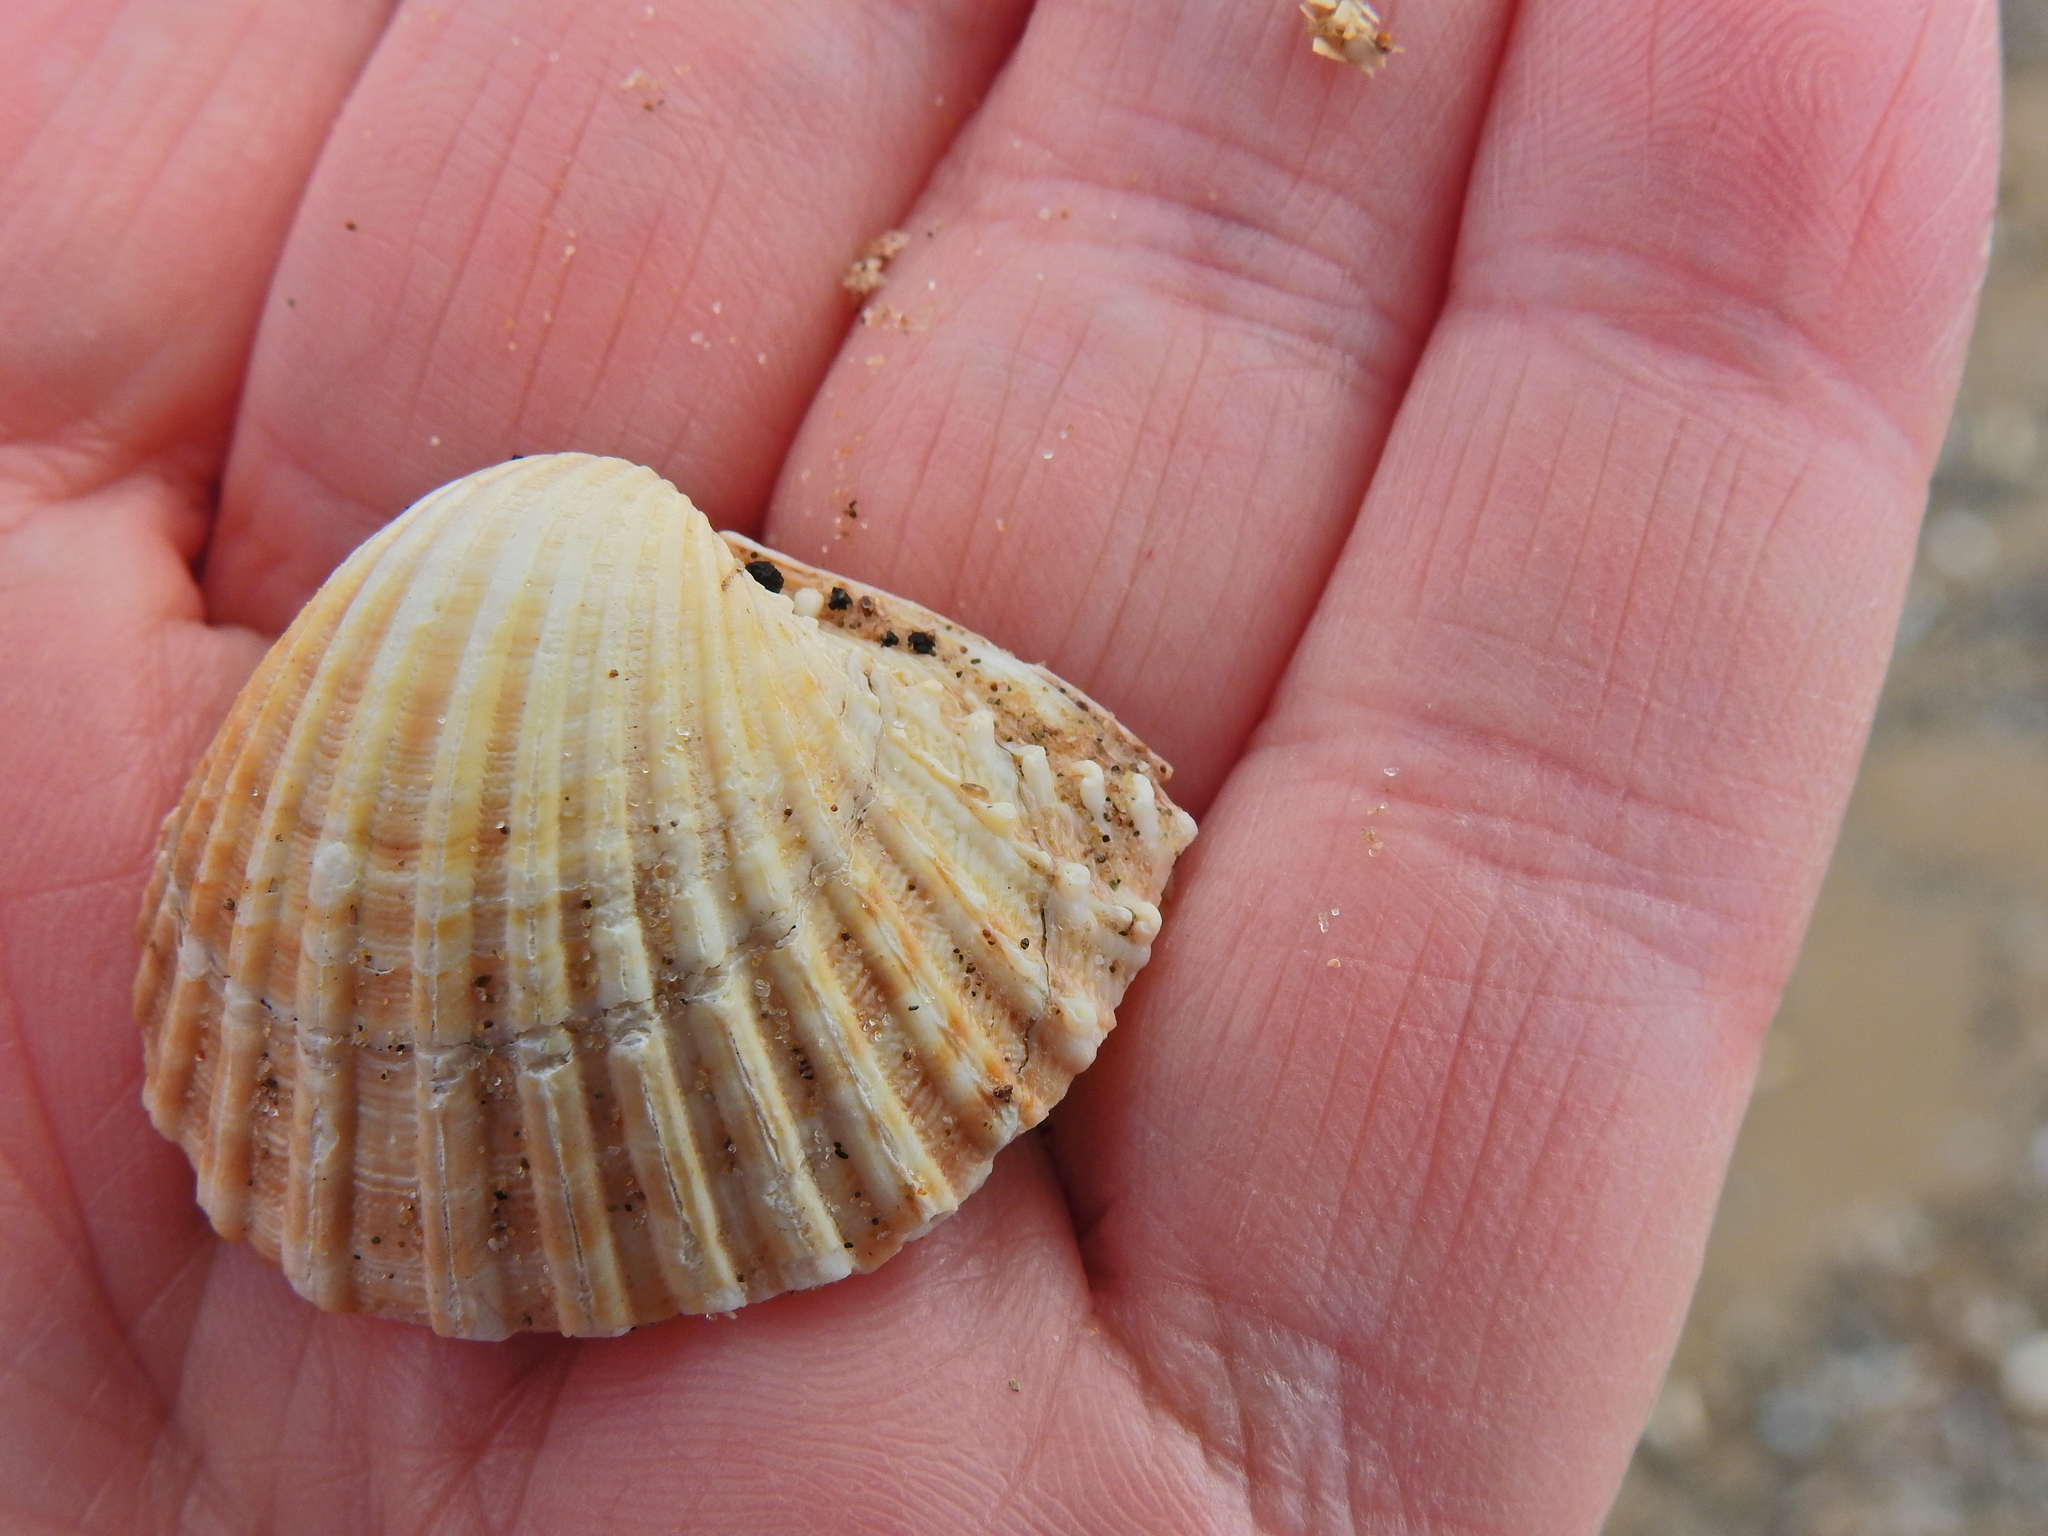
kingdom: Animalia
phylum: Mollusca
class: Bivalvia
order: Cardiida
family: Cardiidae
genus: Acanthocardia
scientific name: Acanthocardia echinata
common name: Prickly cockle
